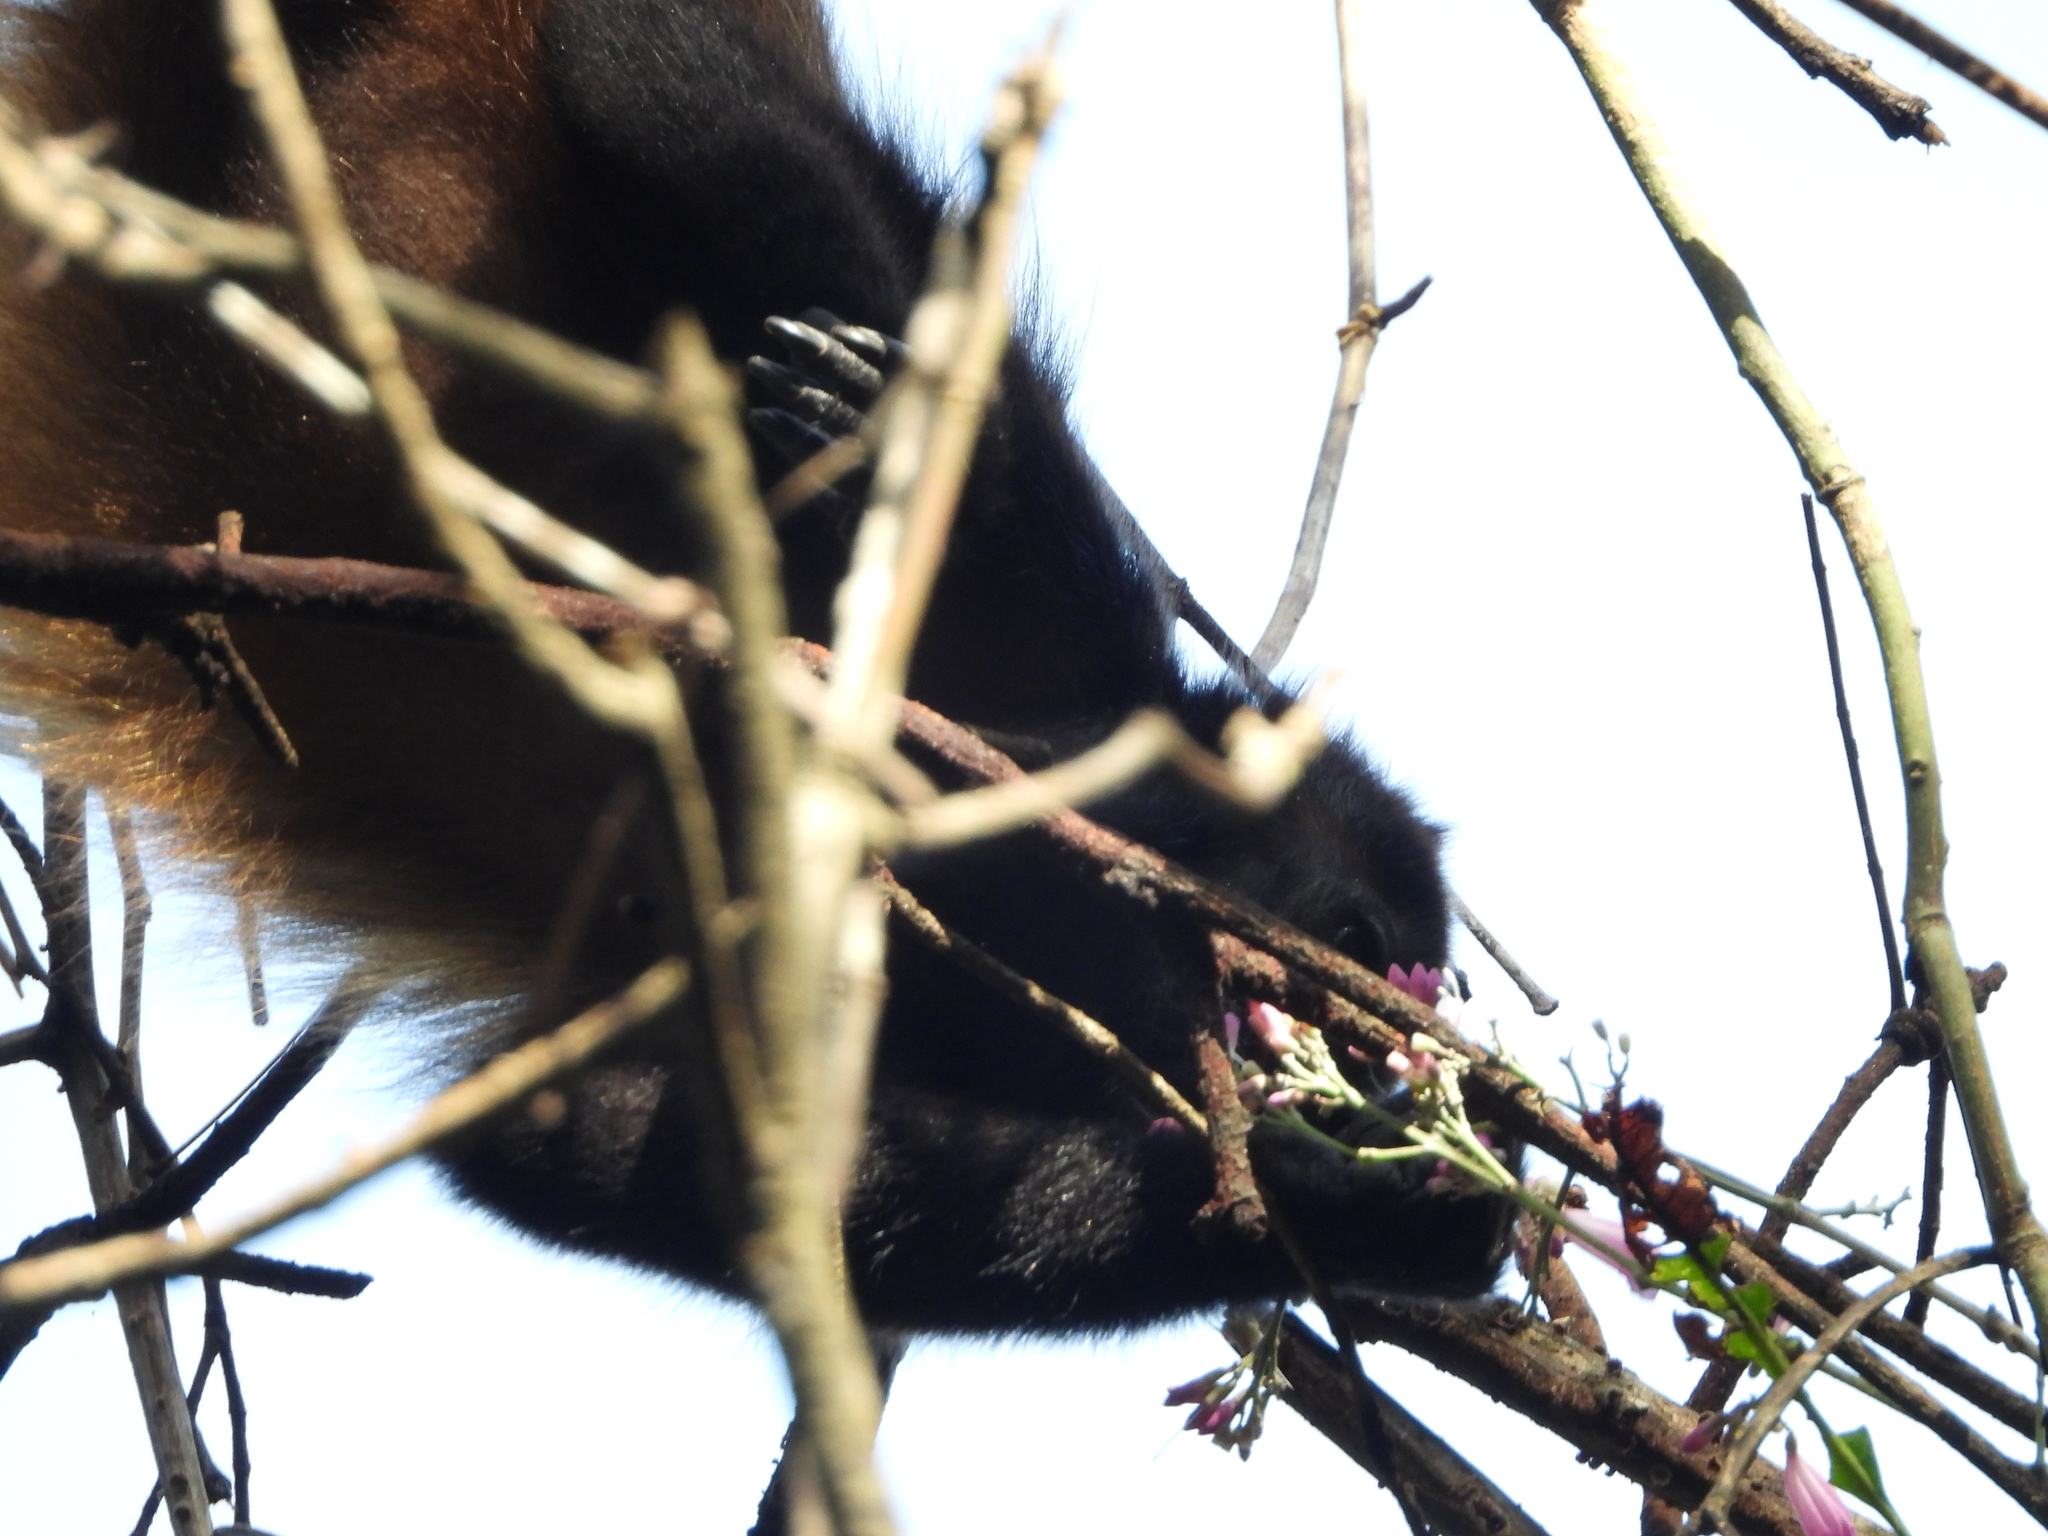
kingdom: Animalia
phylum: Chordata
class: Mammalia
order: Primates
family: Atelidae
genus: Alouatta
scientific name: Alouatta palliata
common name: Mantled howler
